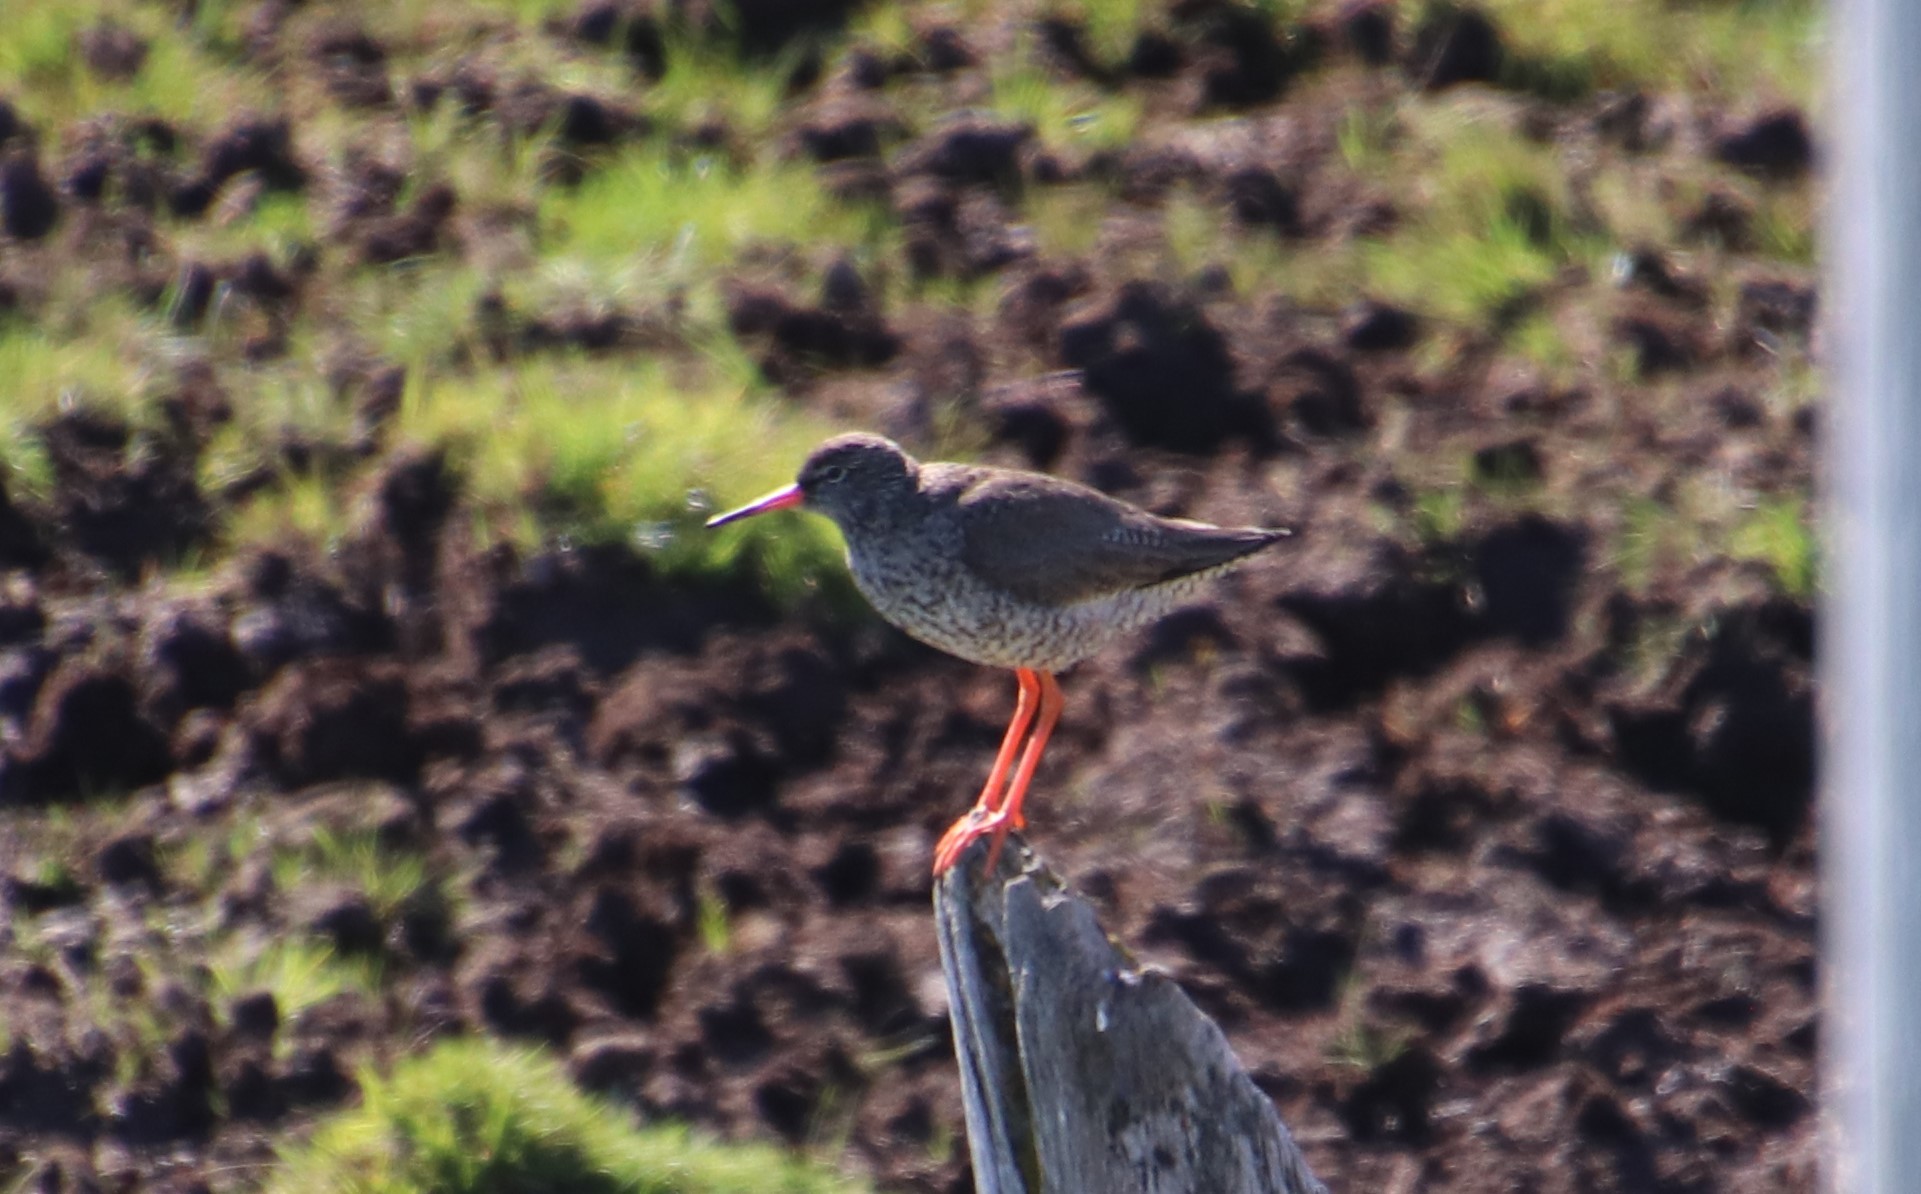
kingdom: Animalia
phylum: Chordata
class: Aves
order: Charadriiformes
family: Scolopacidae
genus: Tringa
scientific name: Tringa totanus
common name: Common redshank
